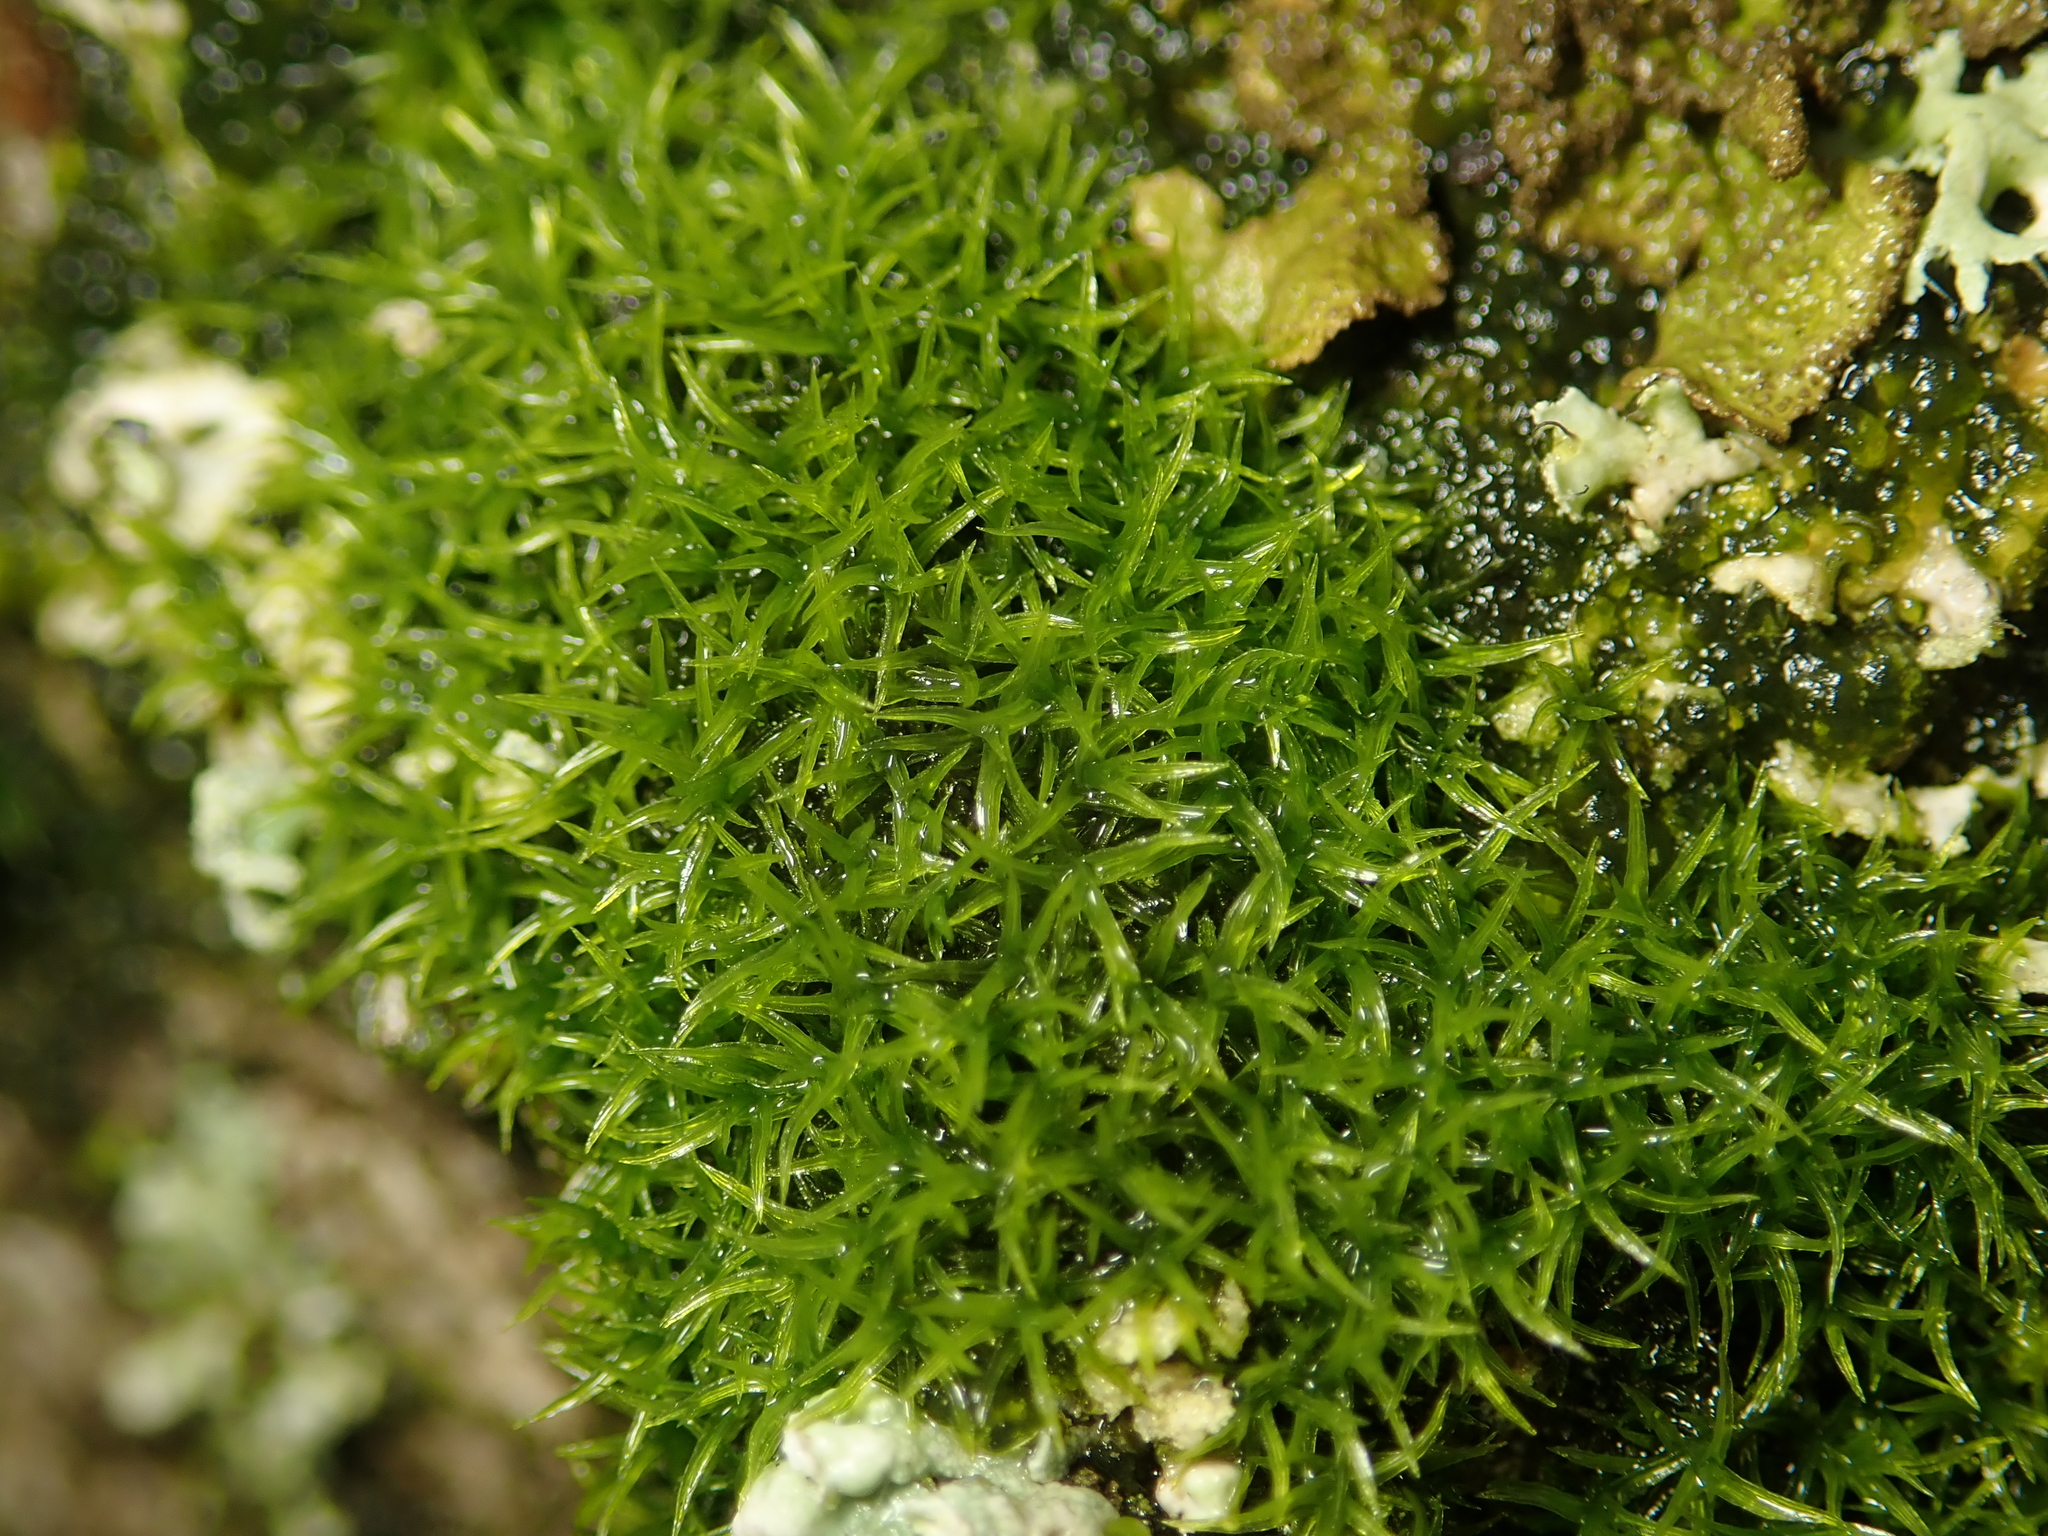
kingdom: Plantae
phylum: Bryophyta
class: Bryopsida
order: Dicranales
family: Rhabdoweisiaceae
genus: Dicranoweisia
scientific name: Dicranoweisia cirrata
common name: Common pincushion
